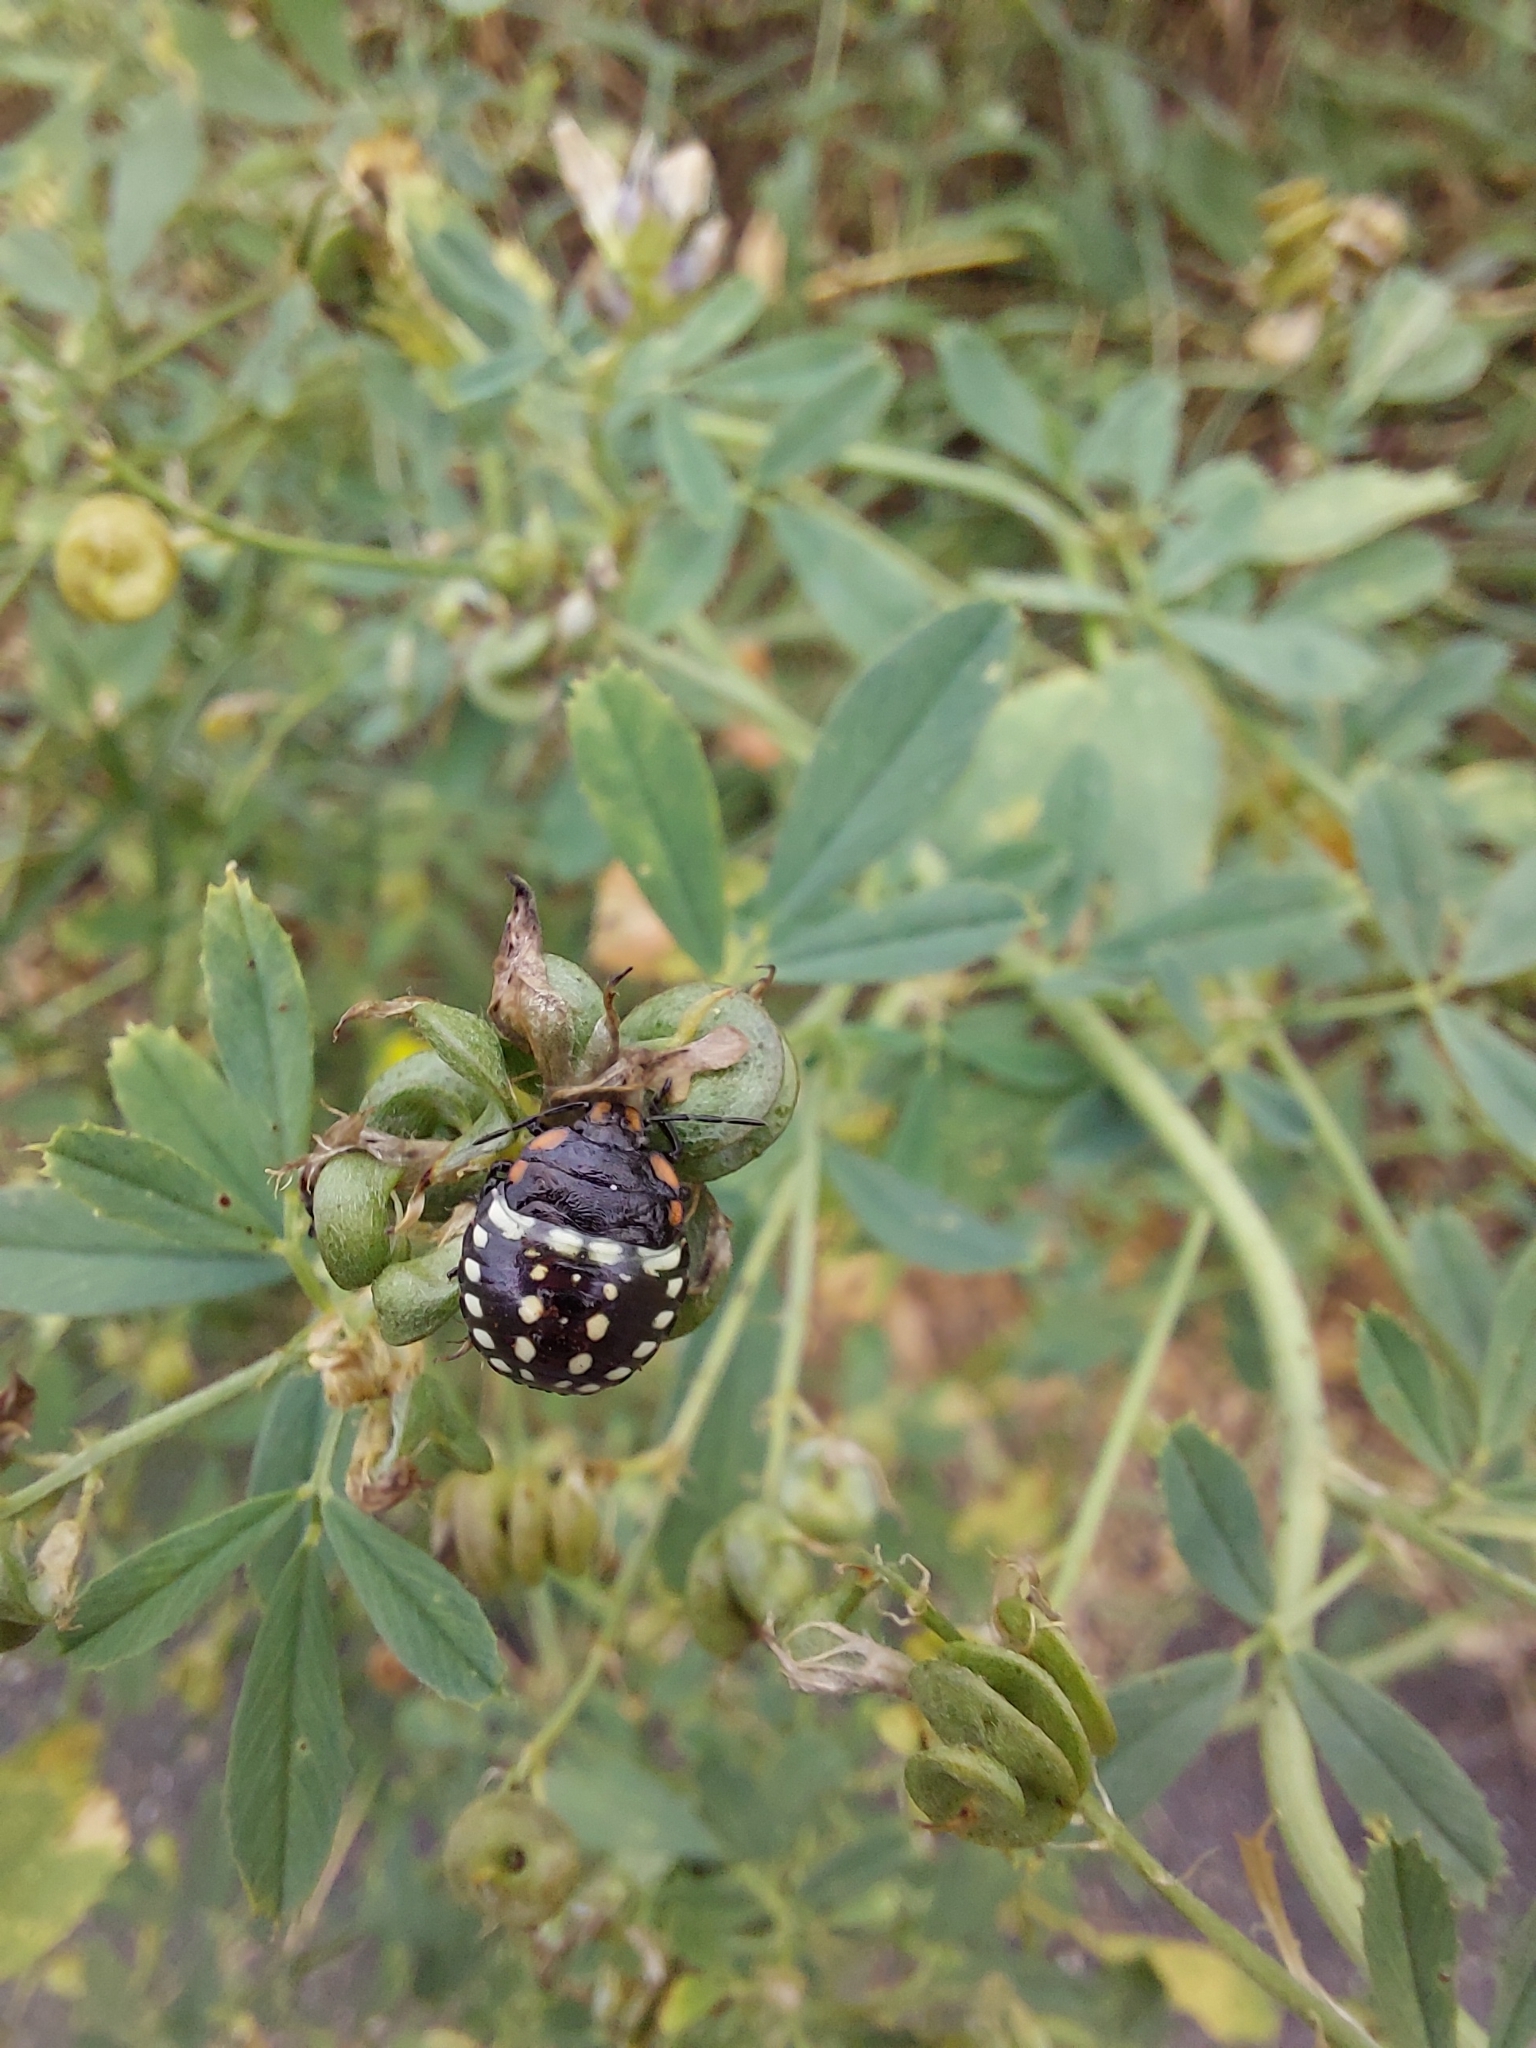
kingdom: Animalia
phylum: Arthropoda
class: Insecta
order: Hemiptera
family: Pentatomidae
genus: Nezara
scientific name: Nezara viridula
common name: Southern green stink bug
